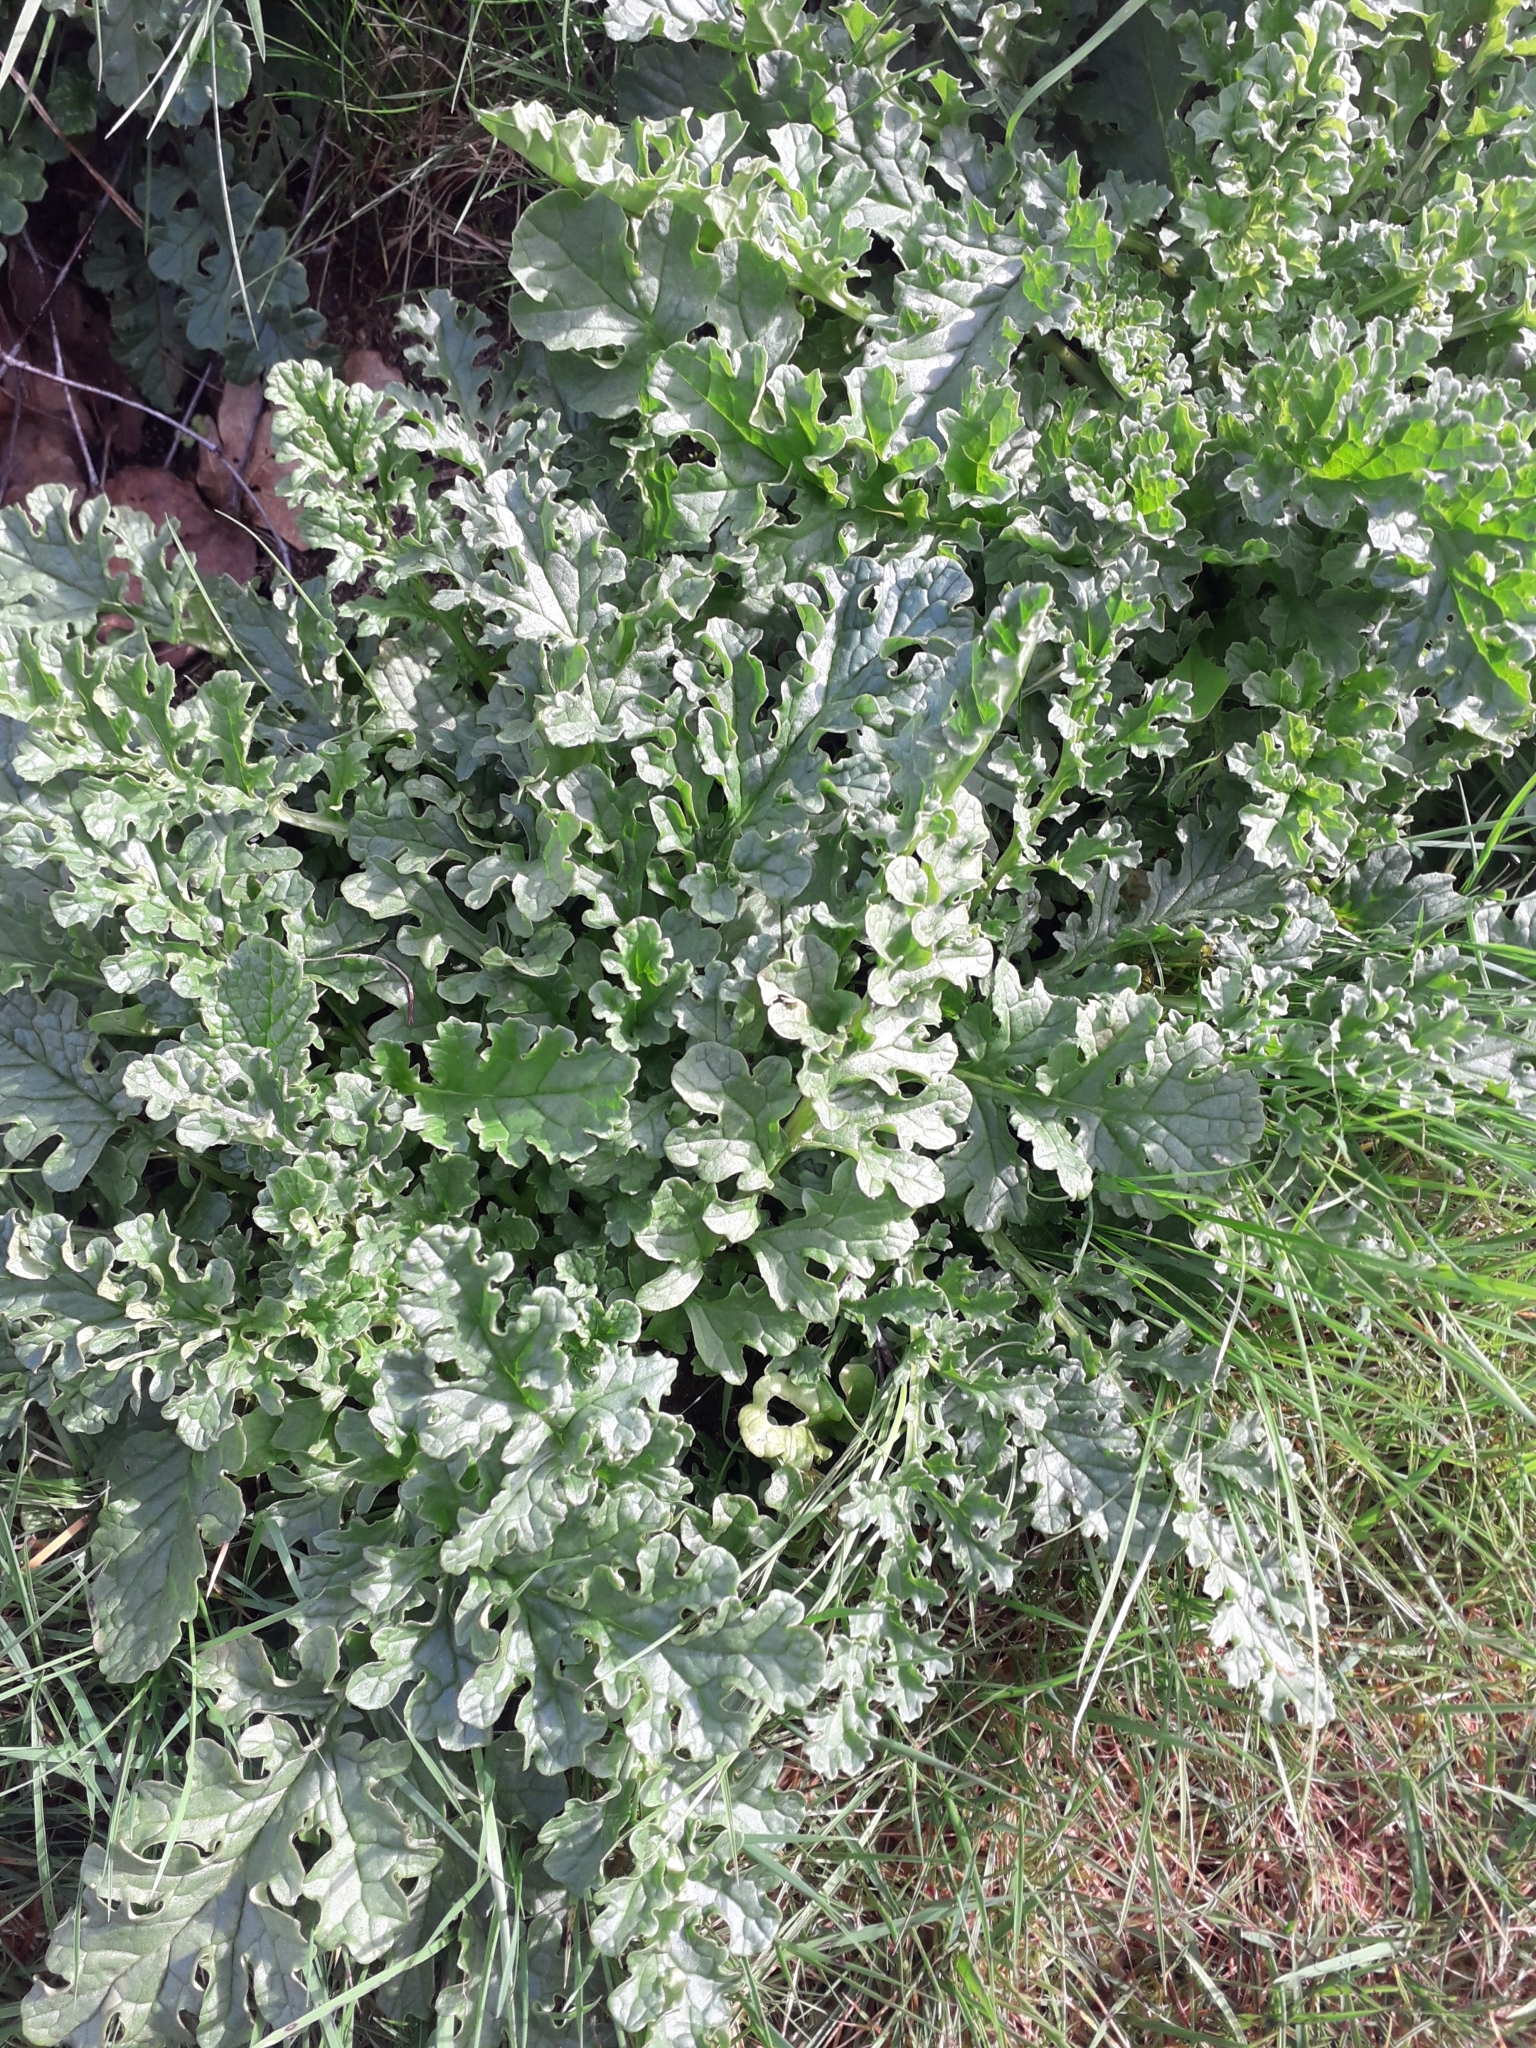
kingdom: Plantae
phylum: Tracheophyta
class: Magnoliopsida
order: Asterales
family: Asteraceae
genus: Jacobaea
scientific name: Jacobaea vulgaris
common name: Stinking willie
